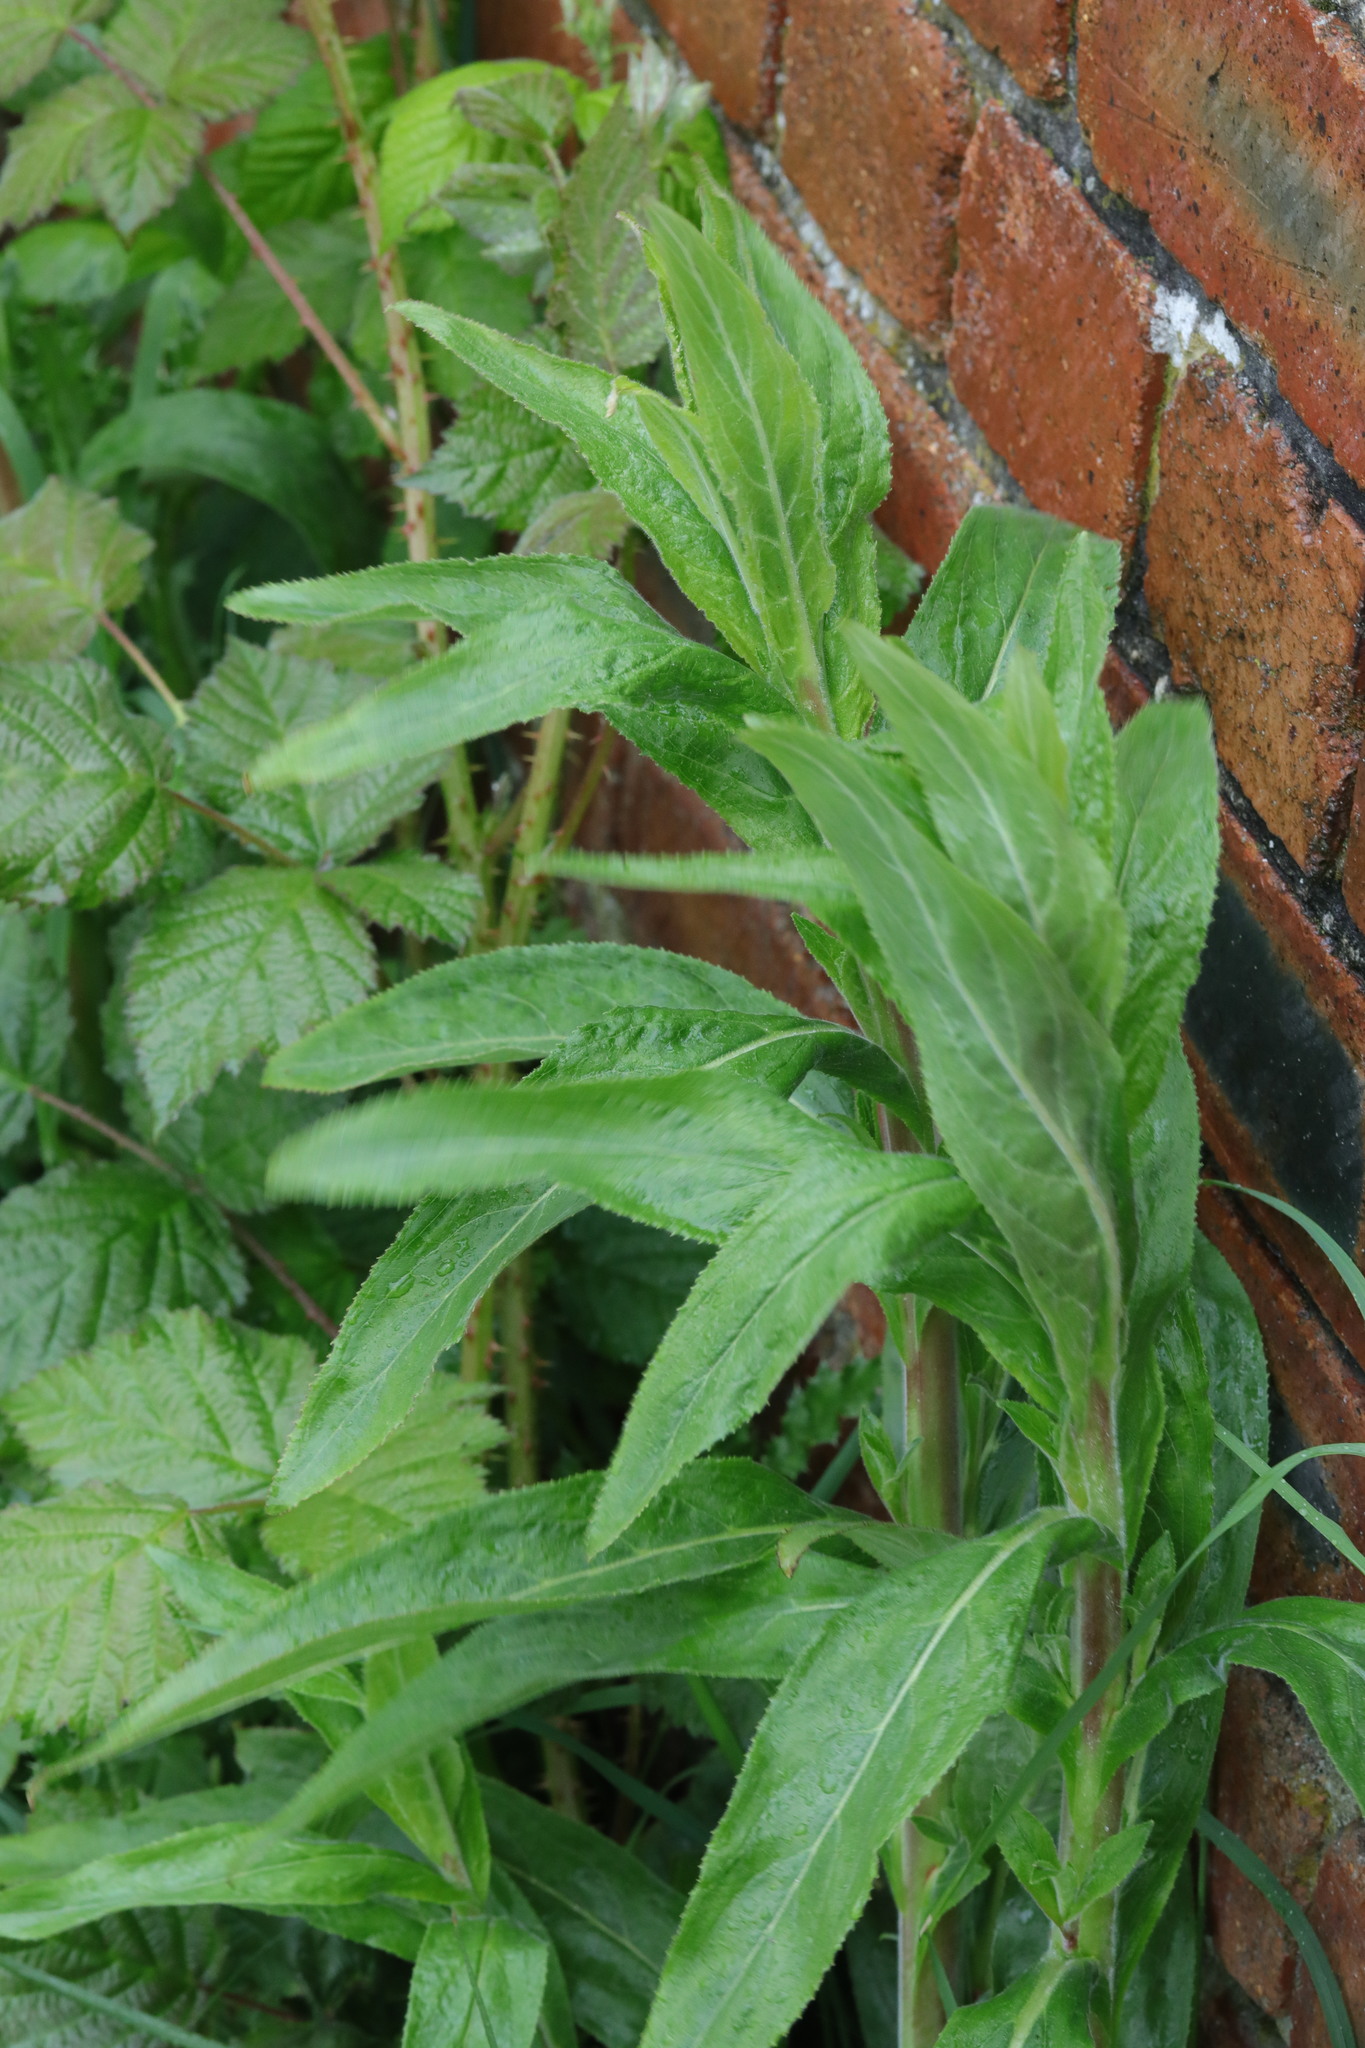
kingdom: Plantae
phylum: Tracheophyta
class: Magnoliopsida
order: Myrtales
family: Onagraceae
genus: Epilobium
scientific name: Epilobium hirsutum
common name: Great willowherb
